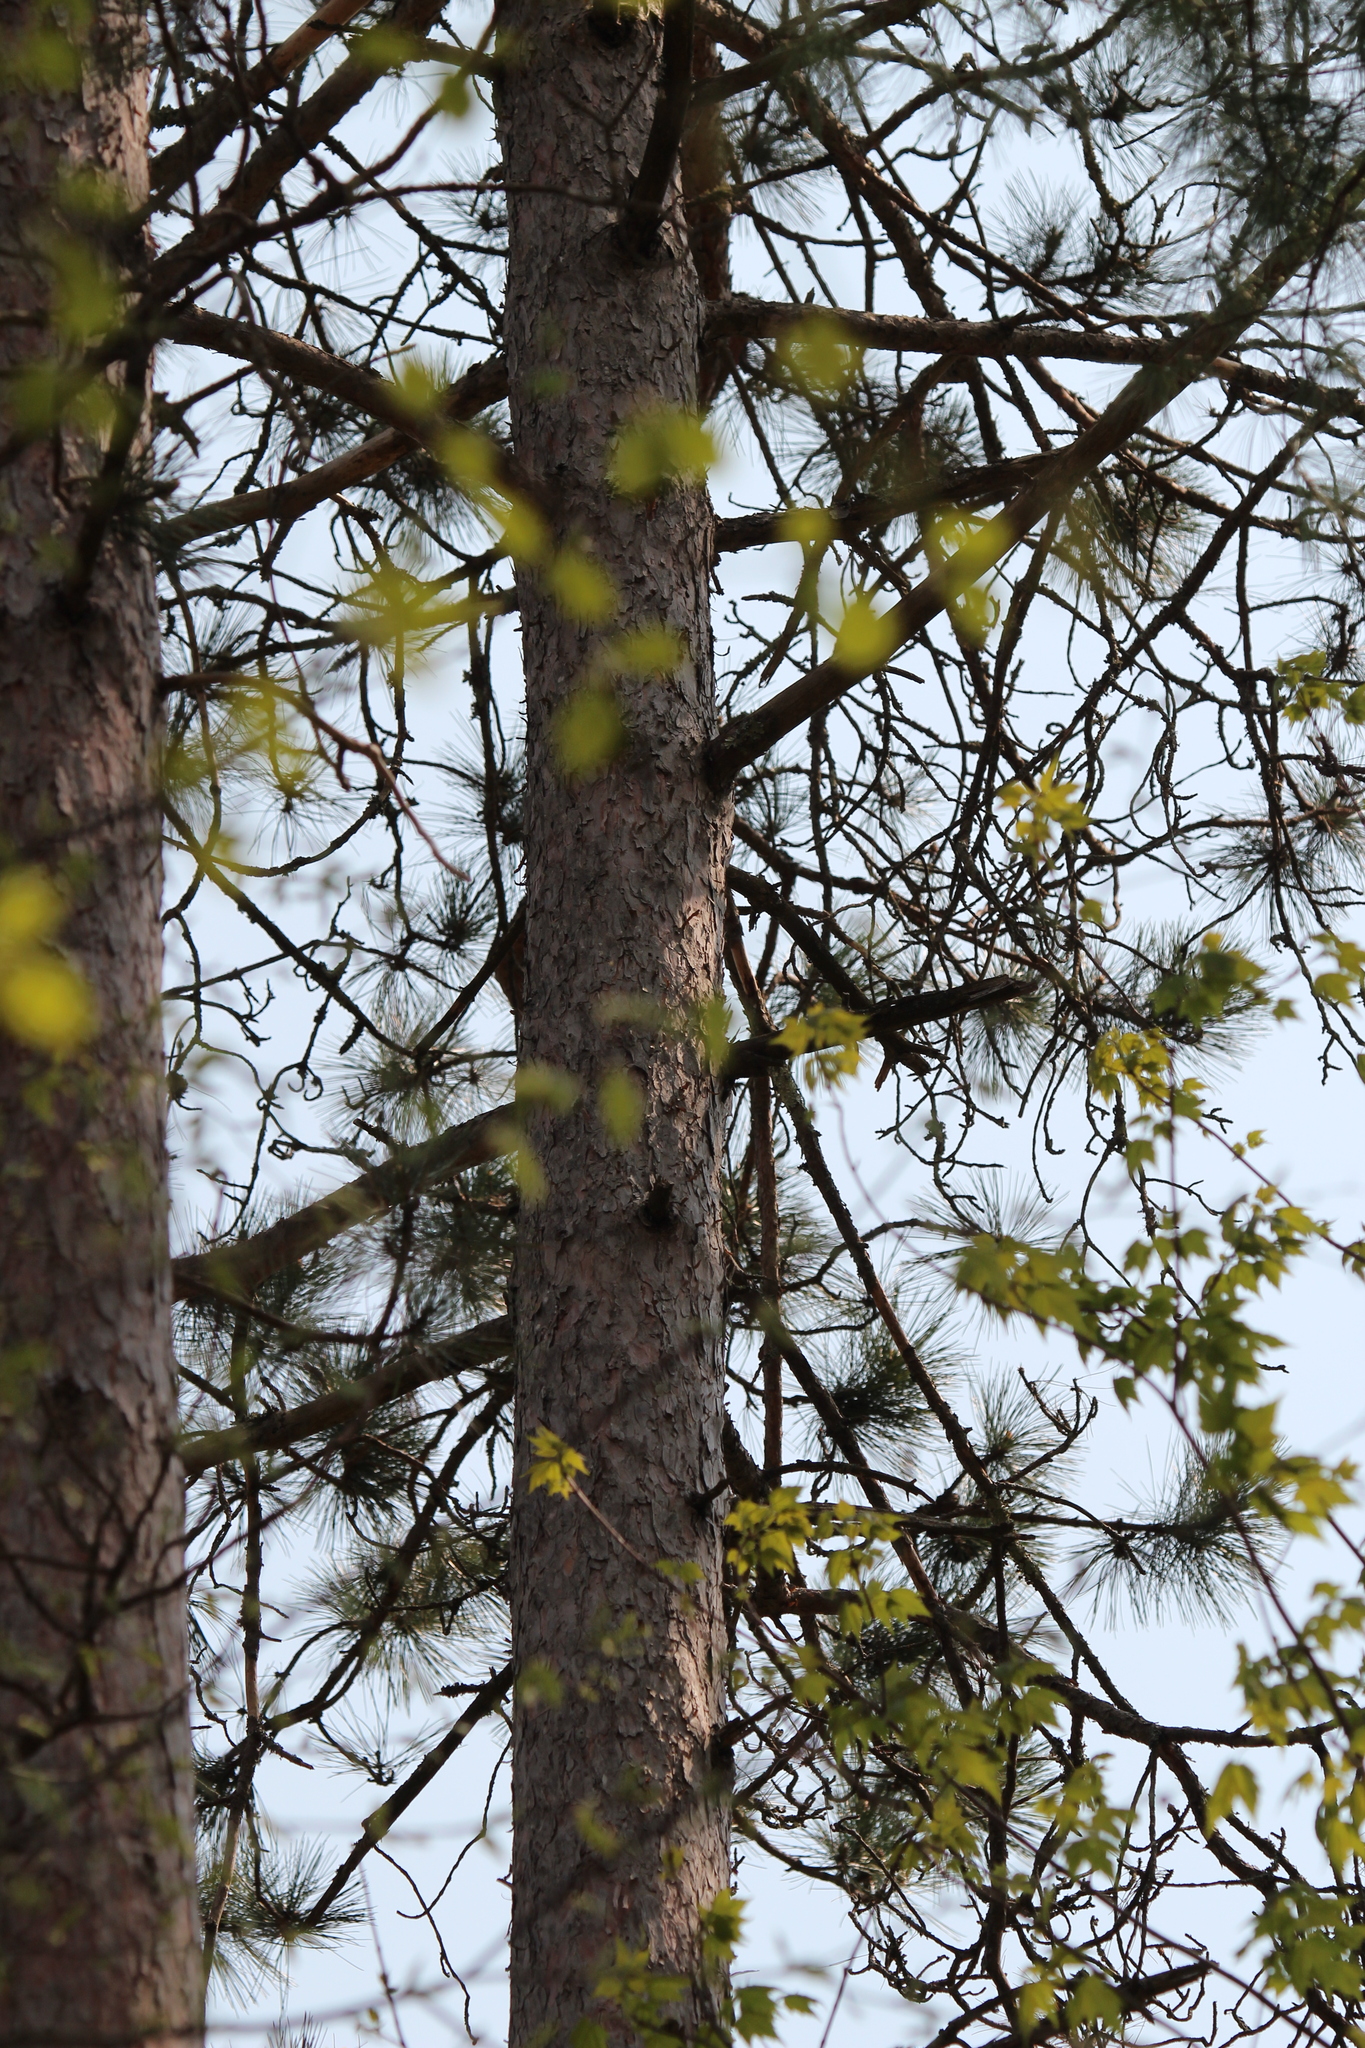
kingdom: Plantae
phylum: Tracheophyta
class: Pinopsida
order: Pinales
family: Pinaceae
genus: Pinus
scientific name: Pinus resinosa
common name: Norway pine
